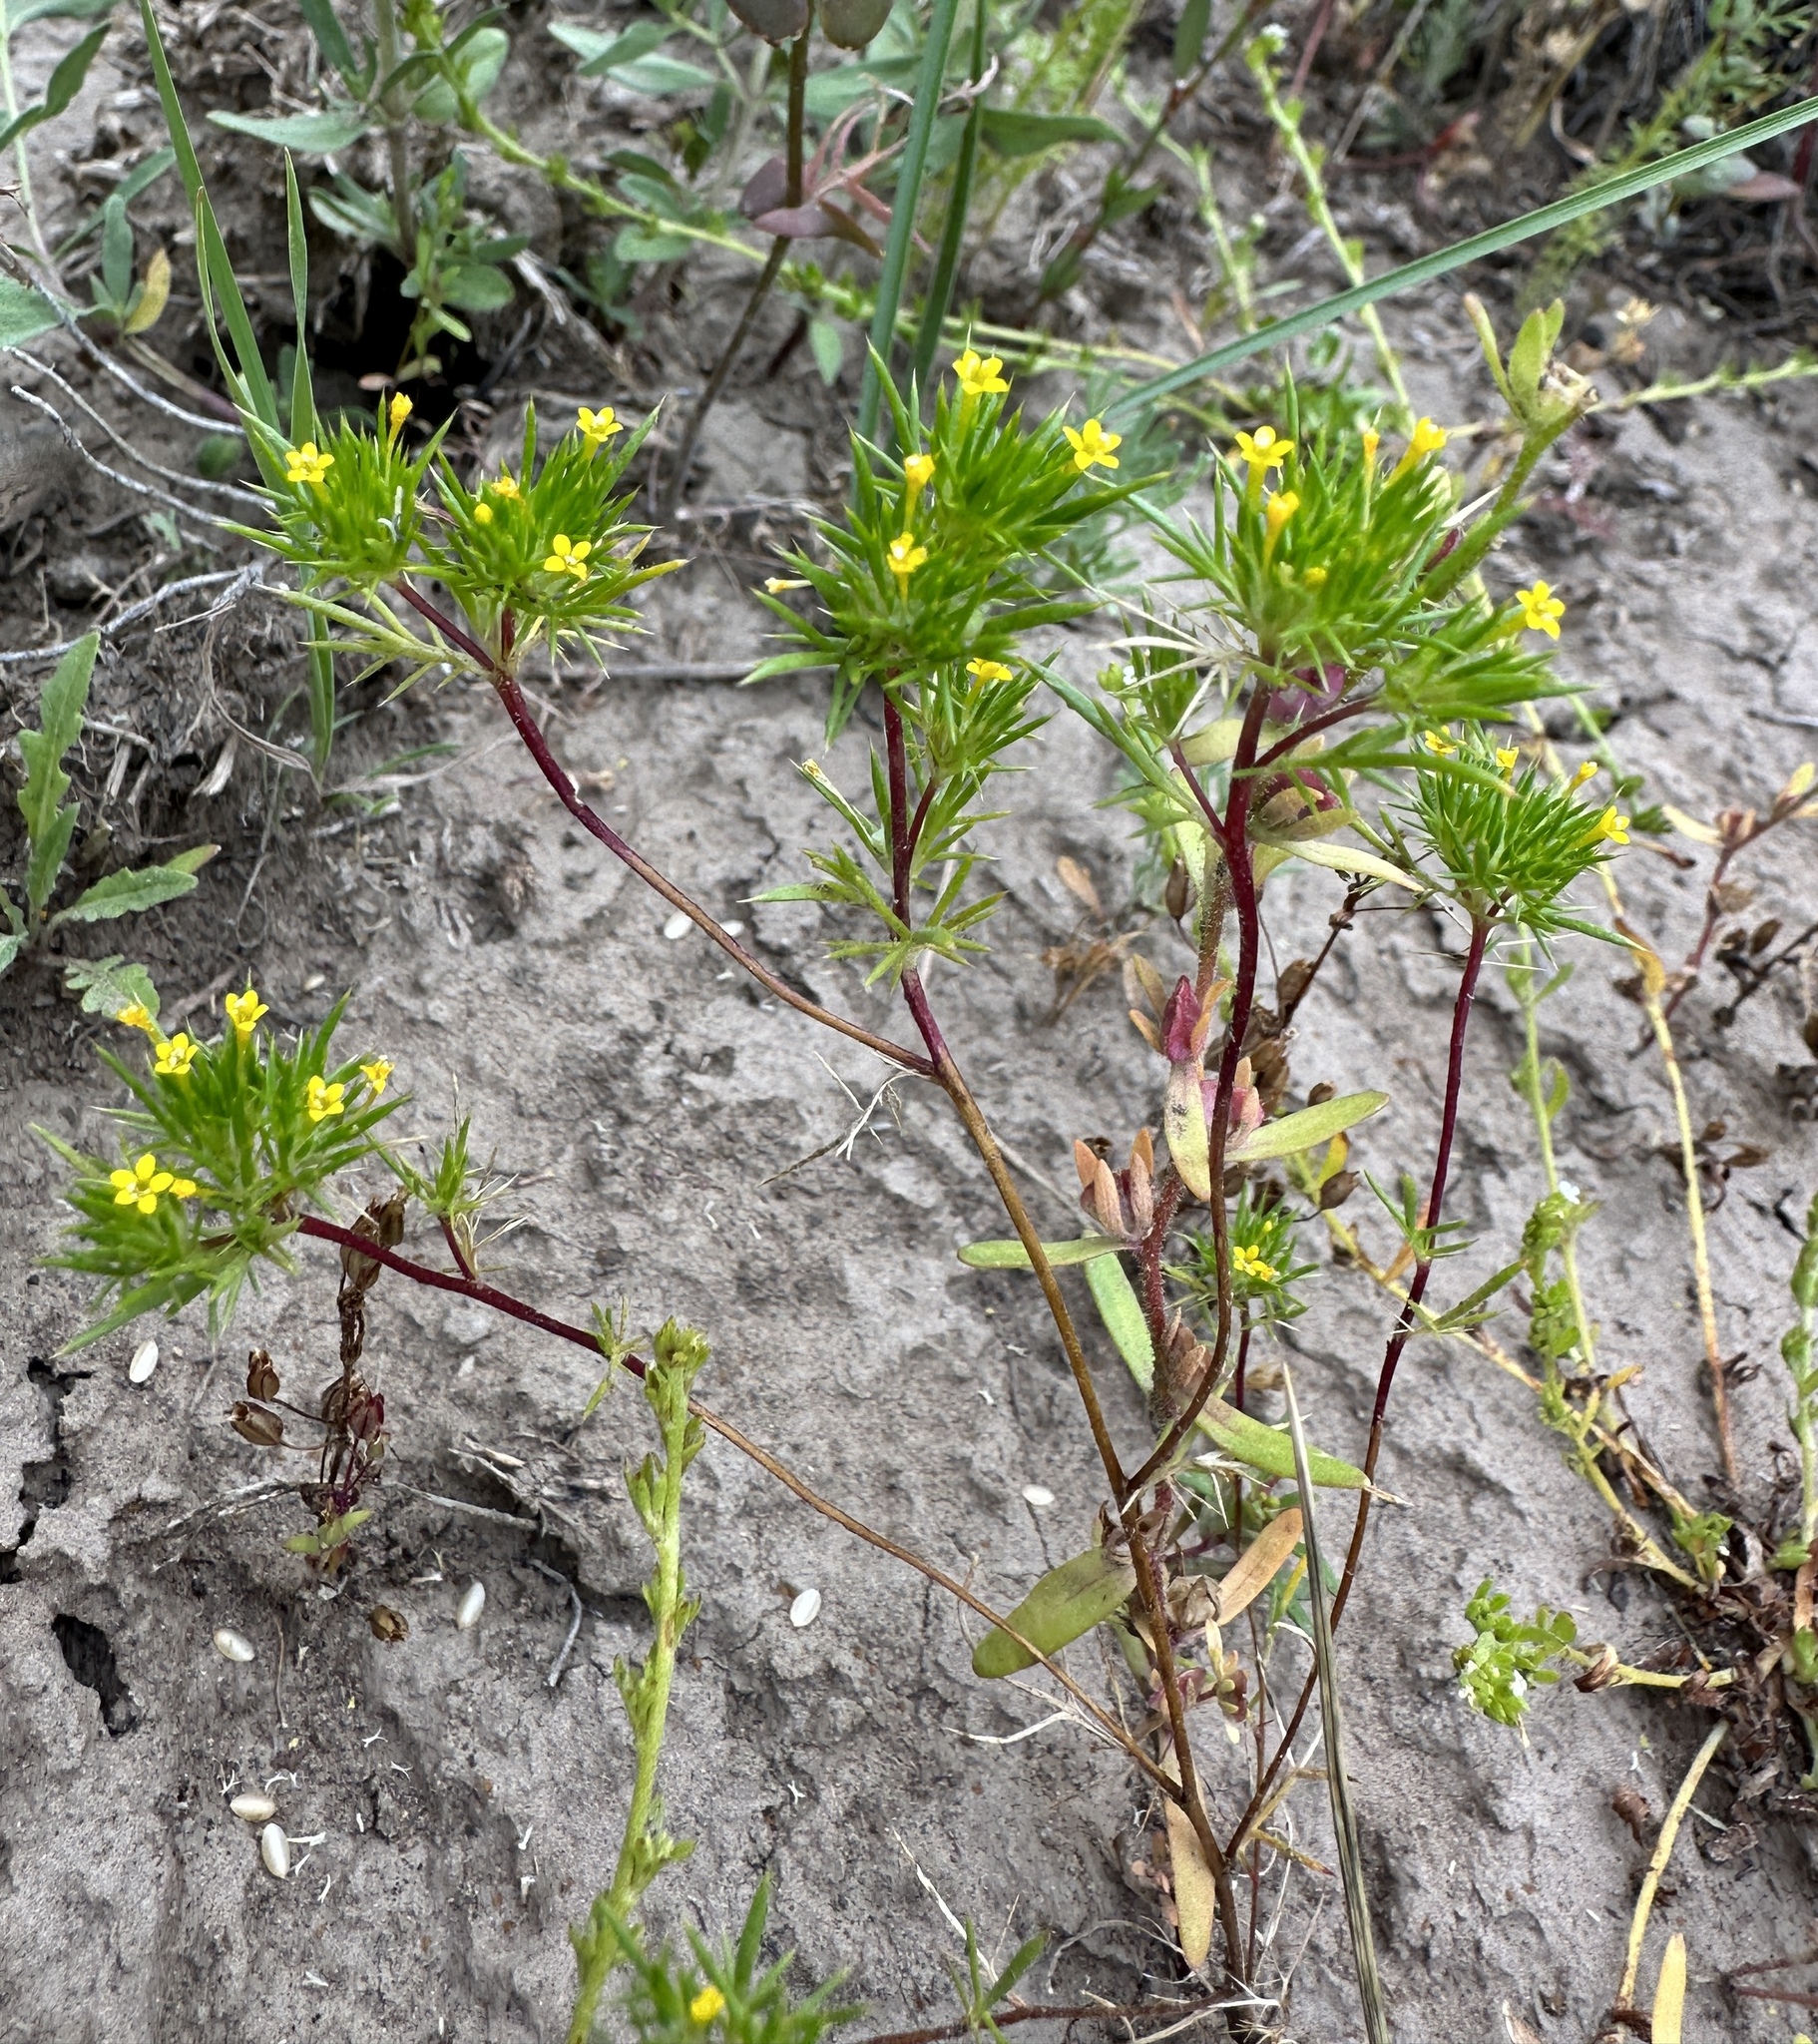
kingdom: Plantae
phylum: Tracheophyta
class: Magnoliopsida
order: Ericales
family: Polemoniaceae
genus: Navarretia
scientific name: Navarretia breweri
